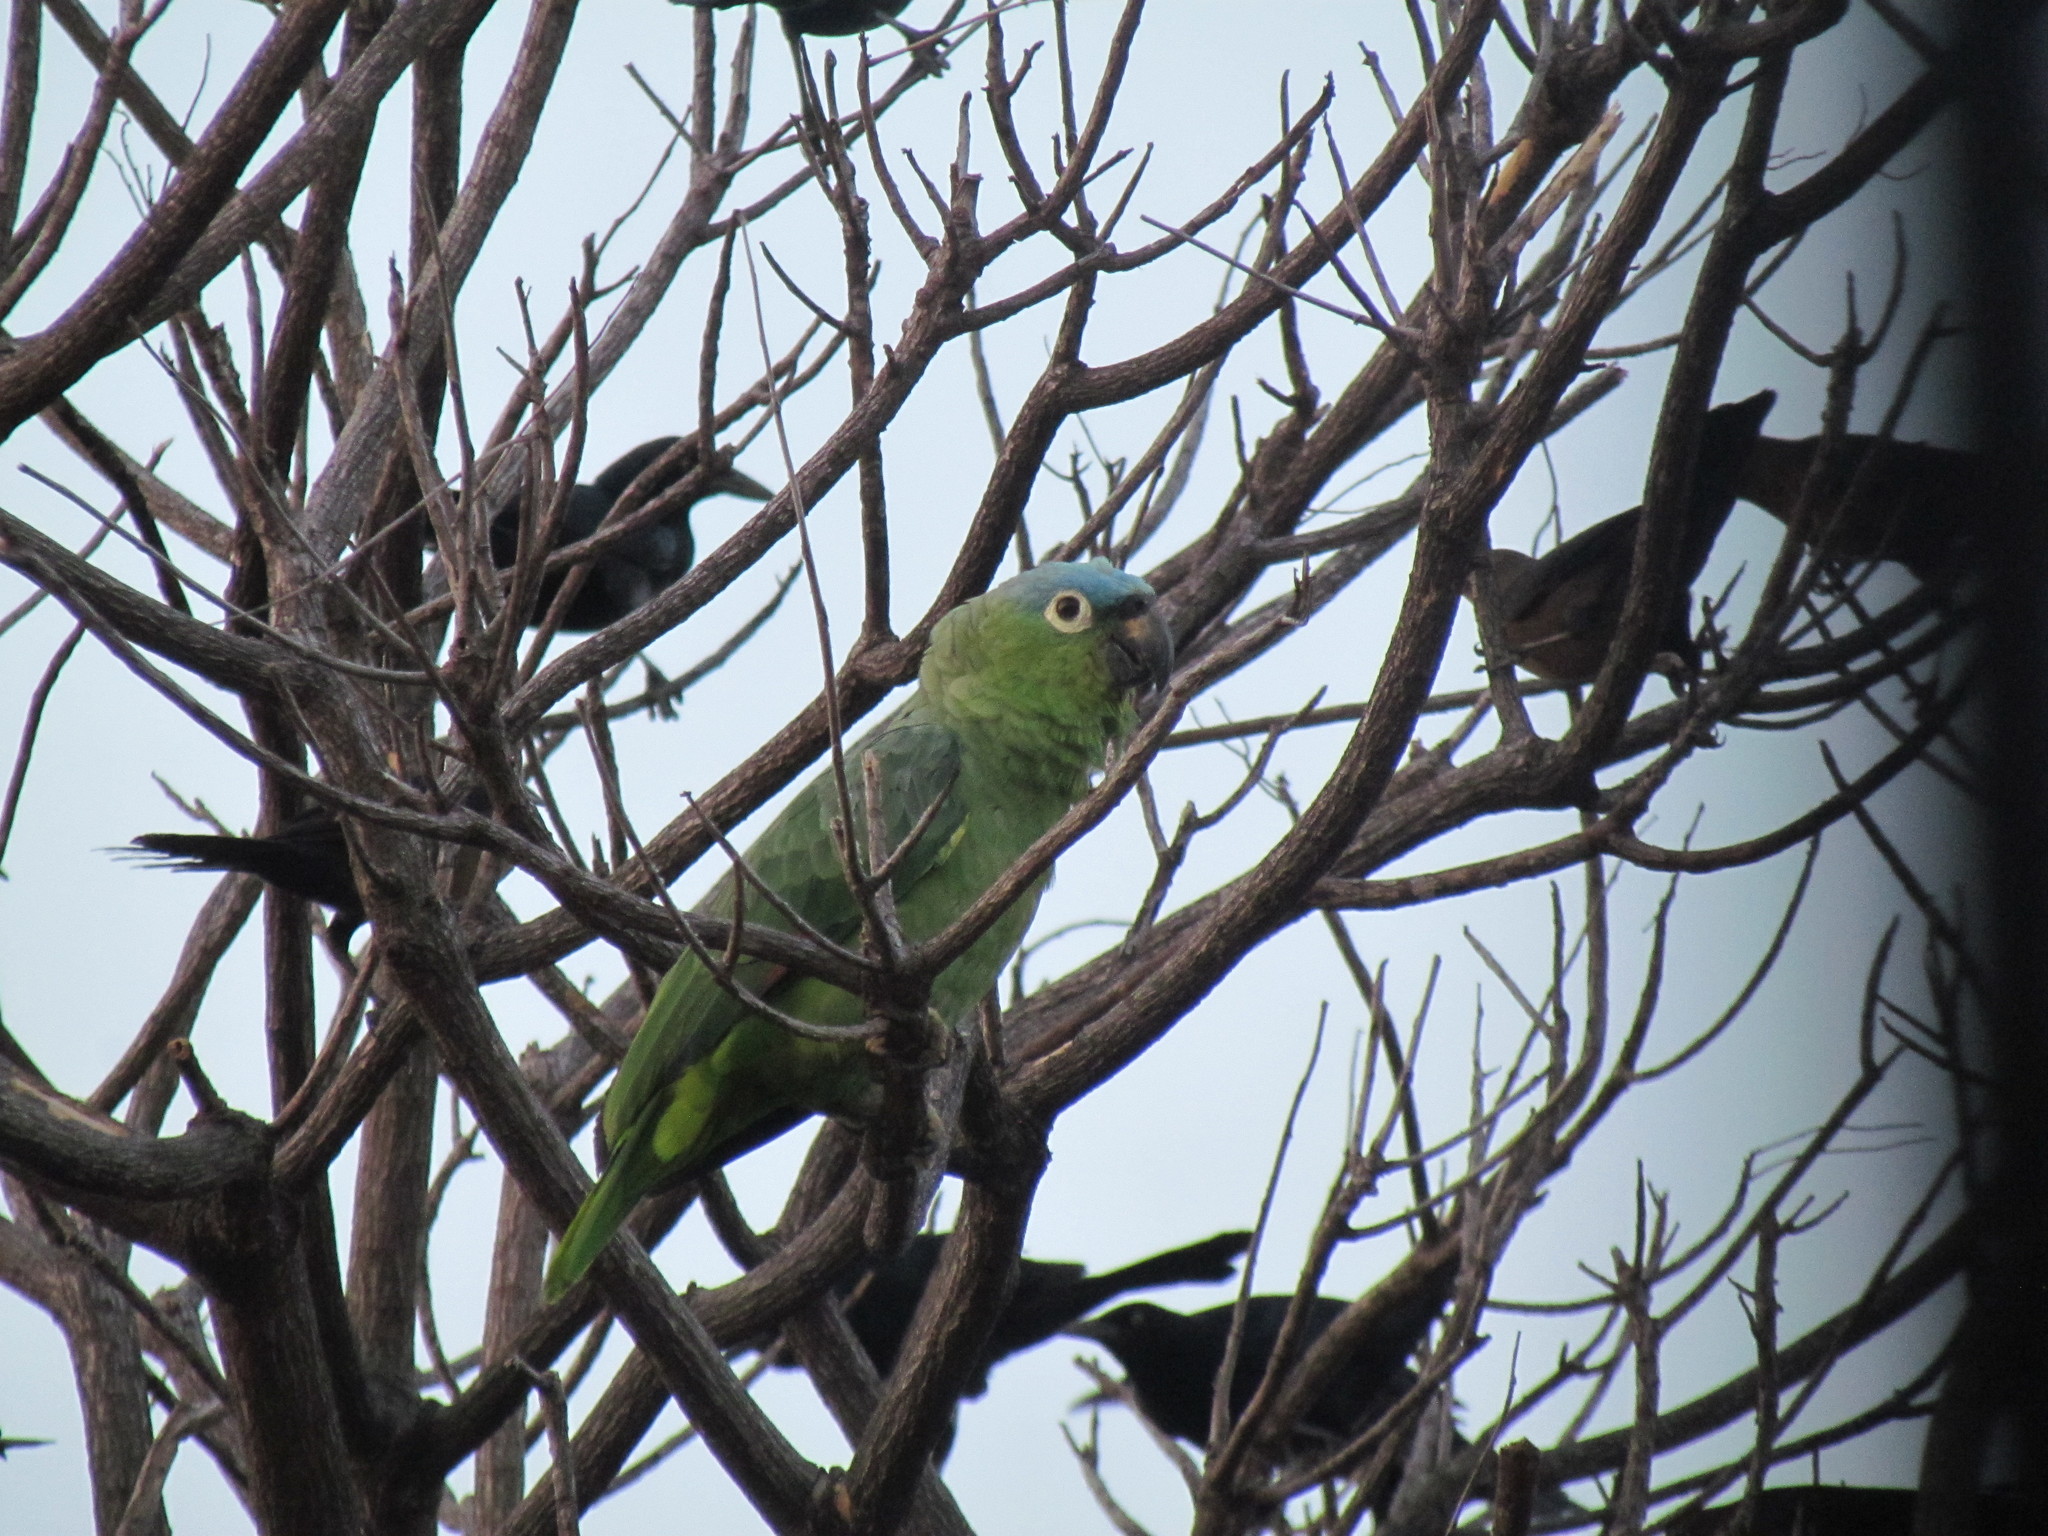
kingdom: Animalia
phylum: Chordata
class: Aves
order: Psittaciformes
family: Psittacidae
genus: Amazona
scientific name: Amazona farinosa
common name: Mealy parrot
